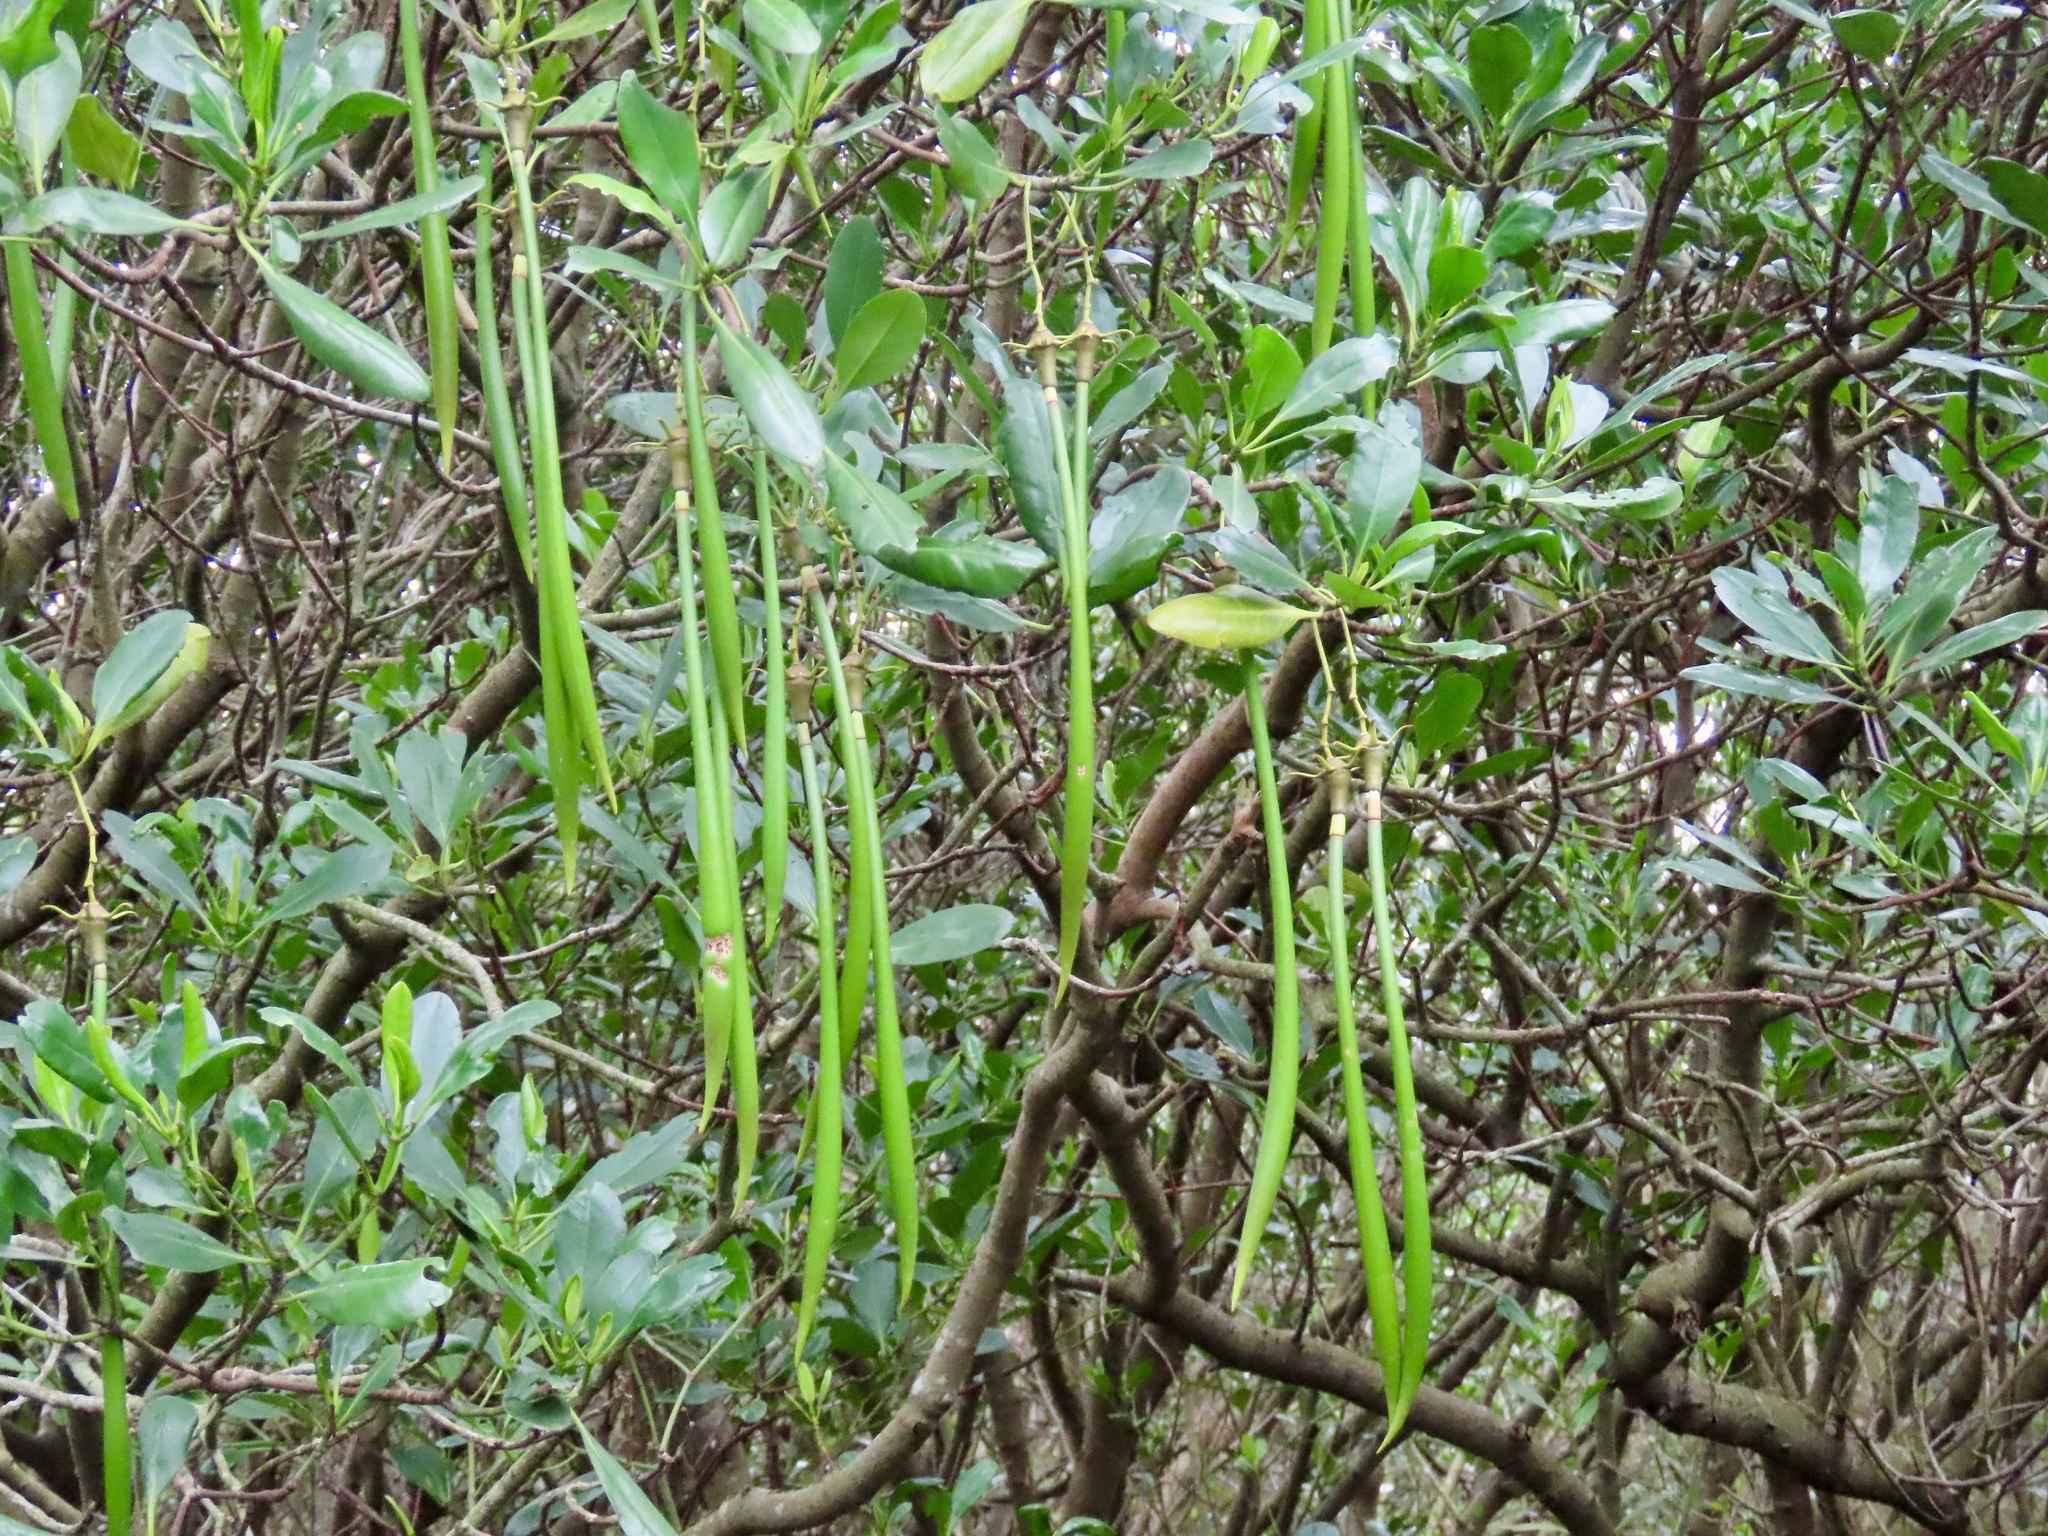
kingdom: Plantae
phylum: Tracheophyta
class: Magnoliopsida
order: Malpighiales
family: Rhizophoraceae
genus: Kandelia
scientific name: Kandelia obovata
